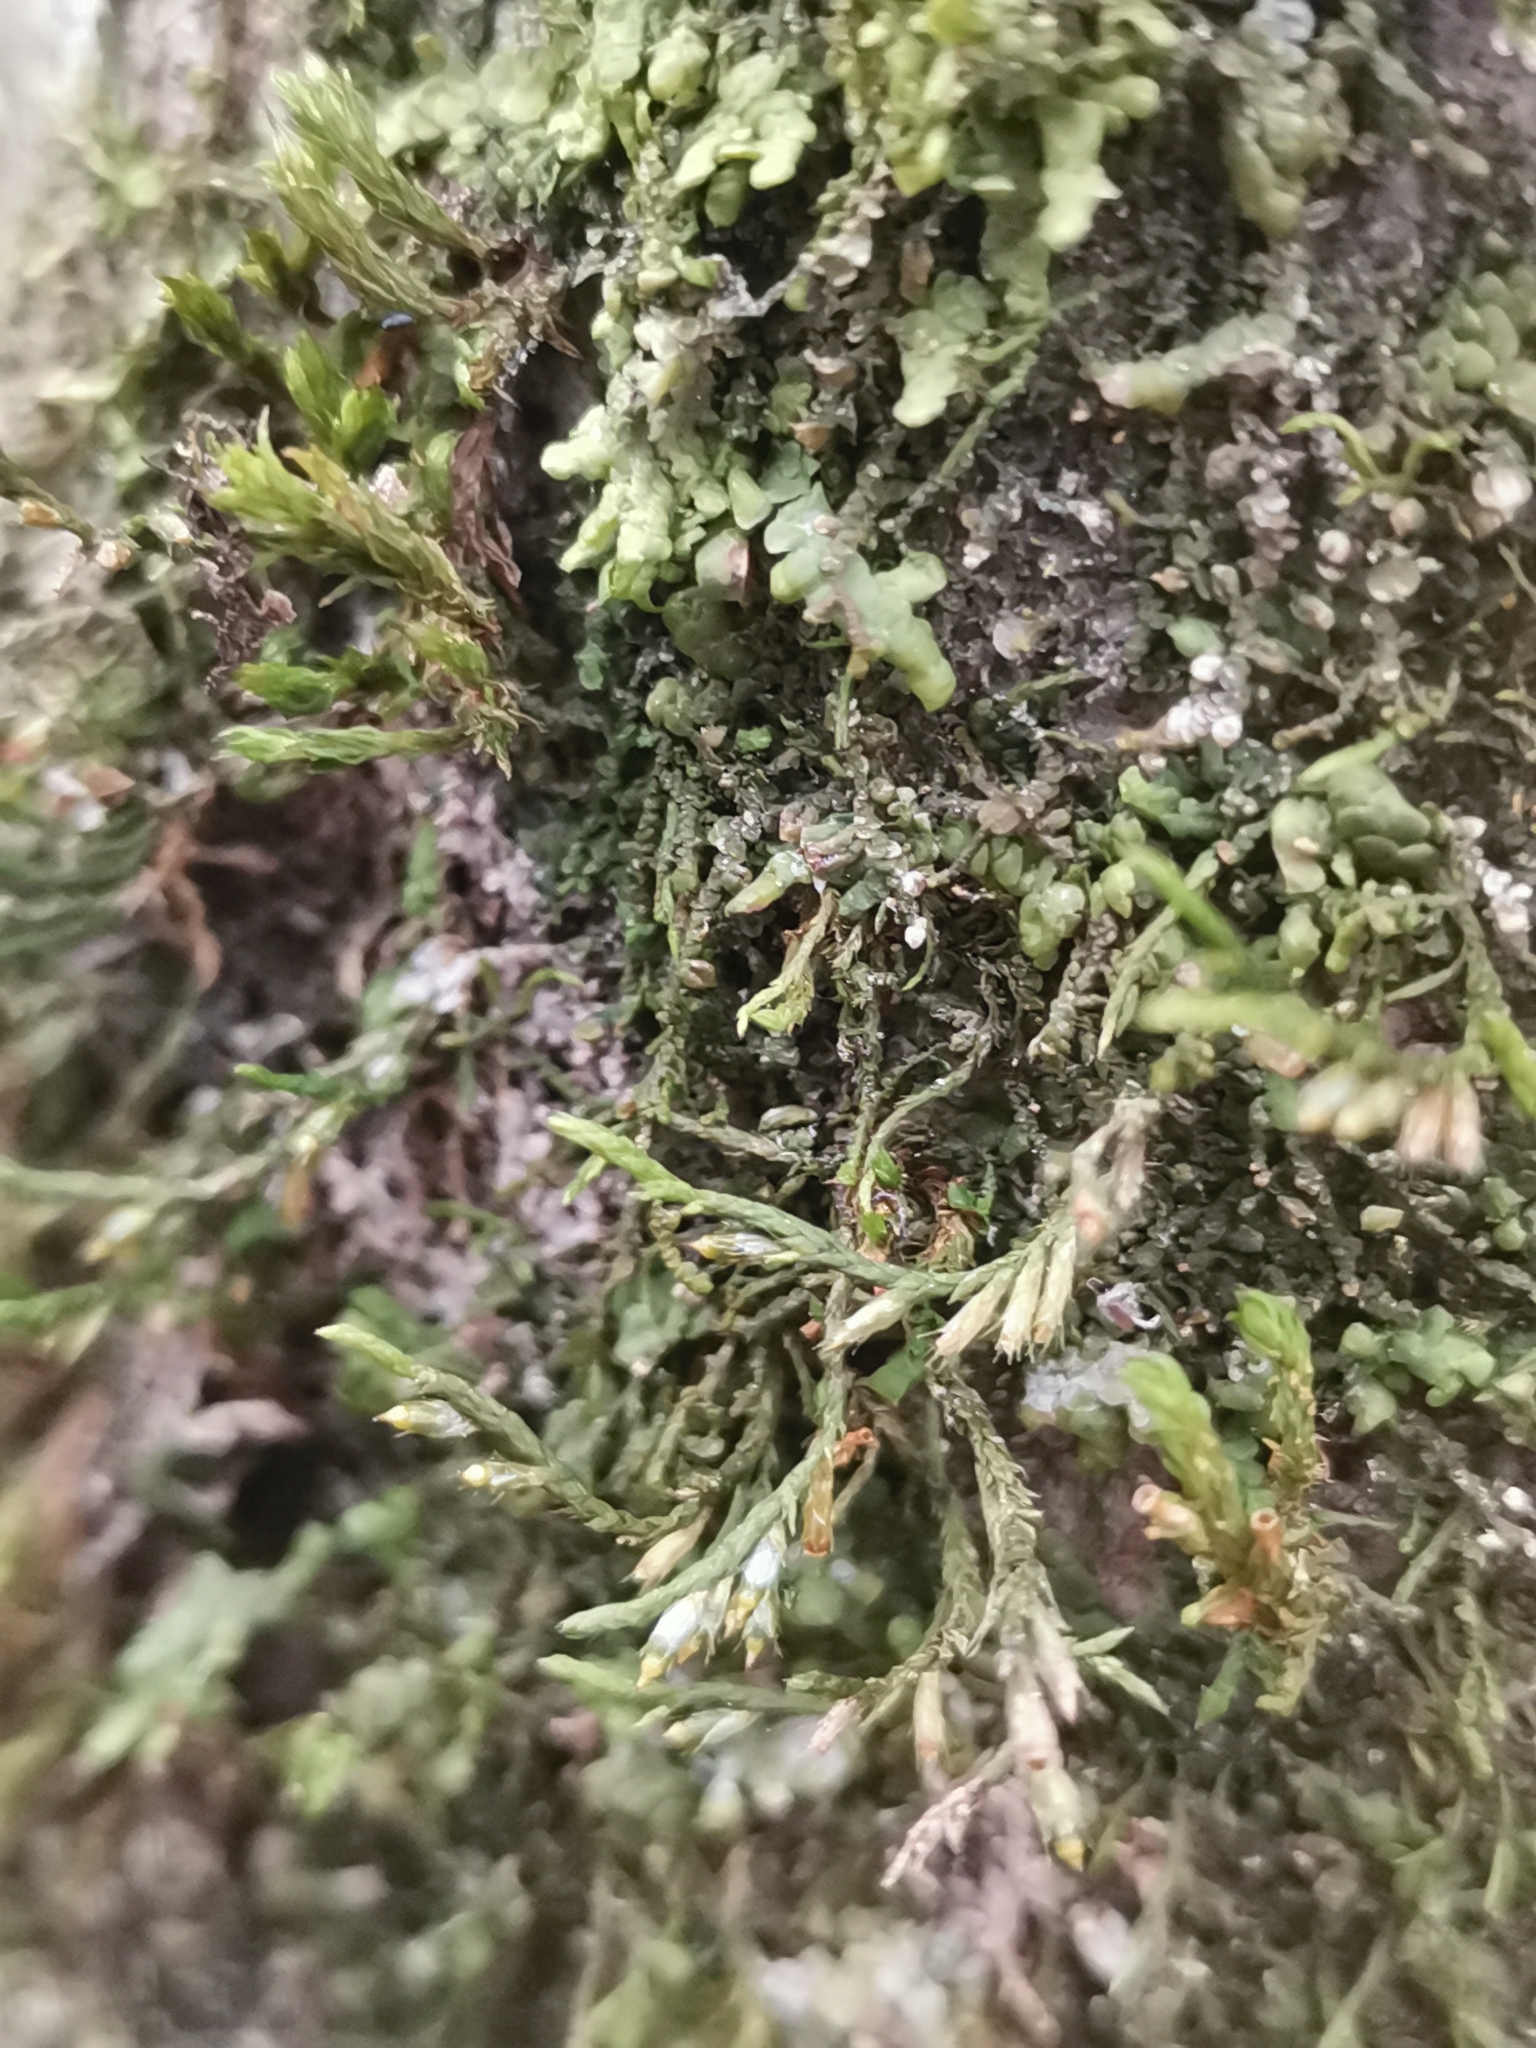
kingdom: Plantae
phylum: Bryophyta
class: Bryopsida
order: Hypnales
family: Cryphaeaceae
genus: Cryphaea
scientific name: Cryphaea heteromalla
